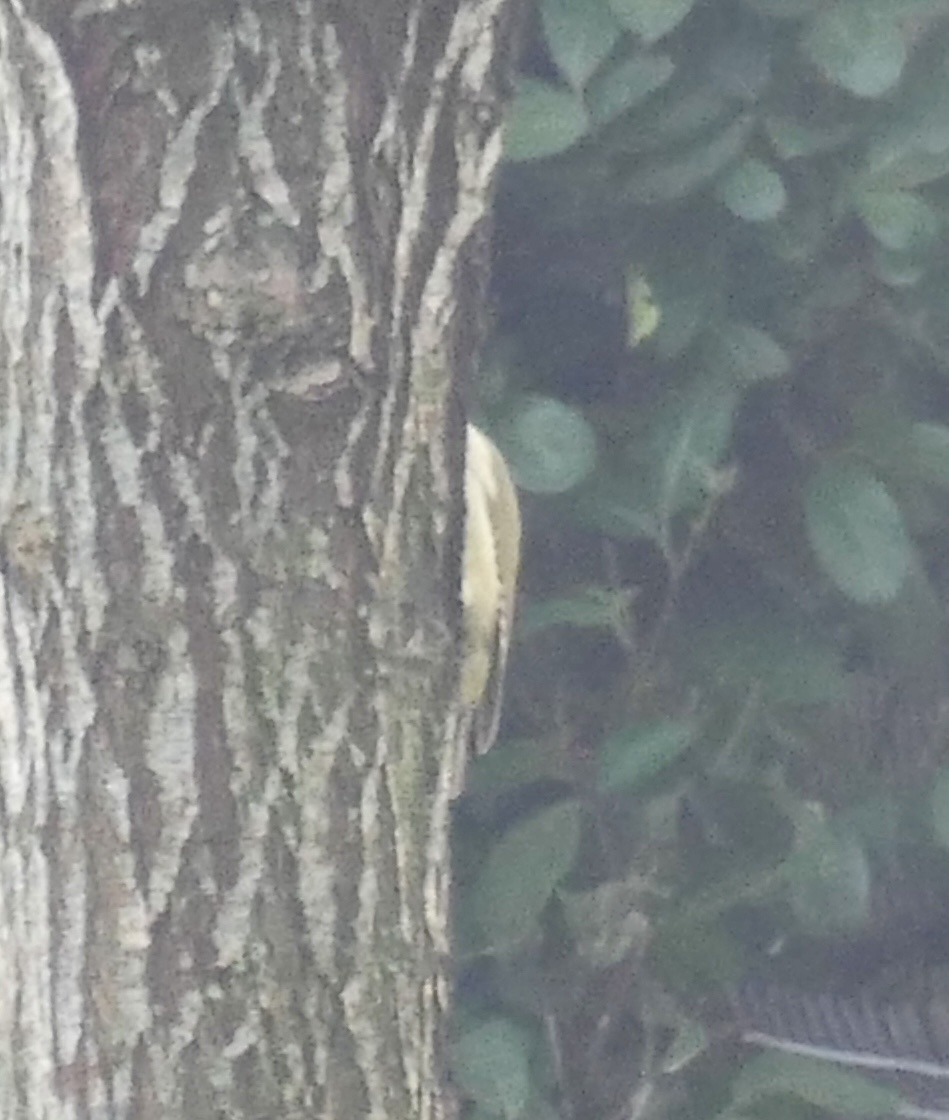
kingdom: Animalia
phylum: Chordata
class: Aves
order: Piciformes
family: Picidae
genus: Picus
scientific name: Picus viridis
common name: European green woodpecker
